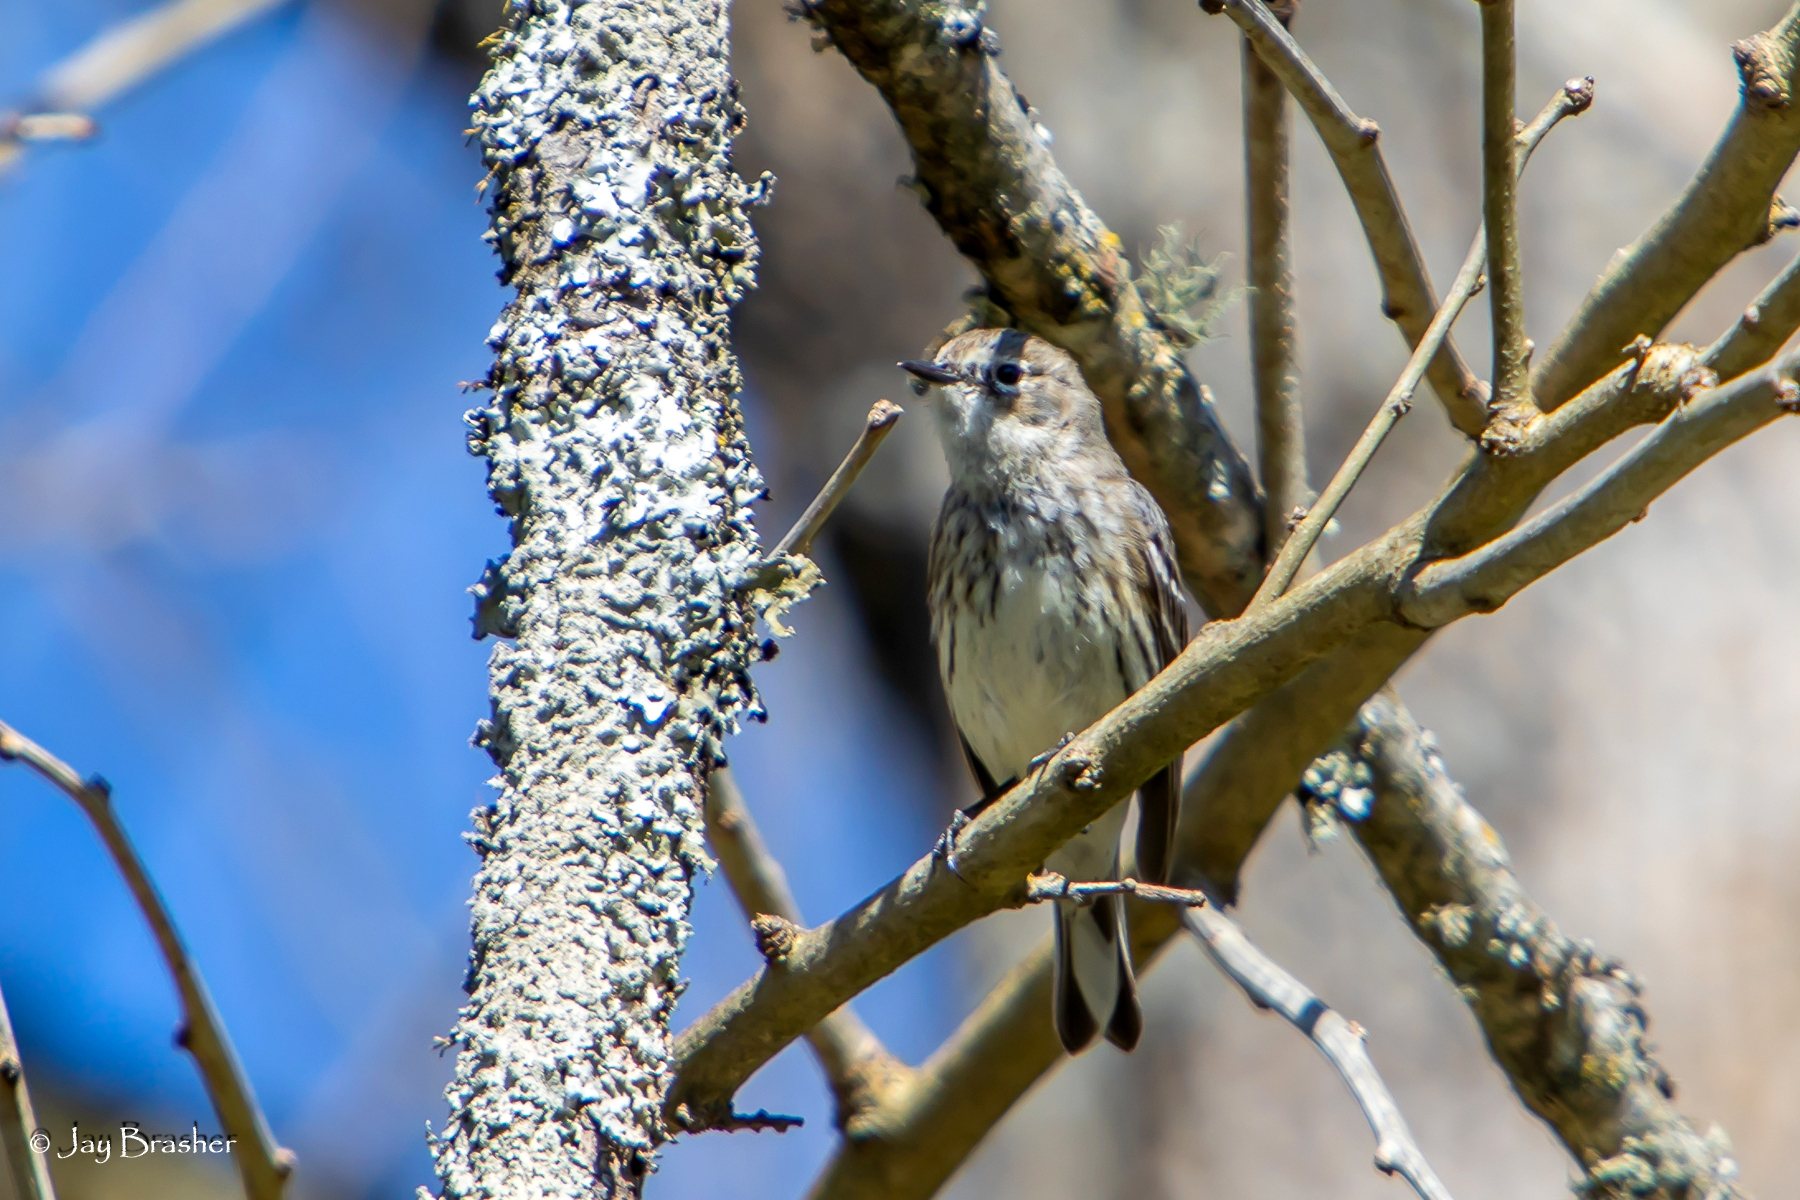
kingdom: Animalia
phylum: Chordata
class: Aves
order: Passeriformes
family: Parulidae
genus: Setophaga
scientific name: Setophaga coronata
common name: Myrtle warbler
